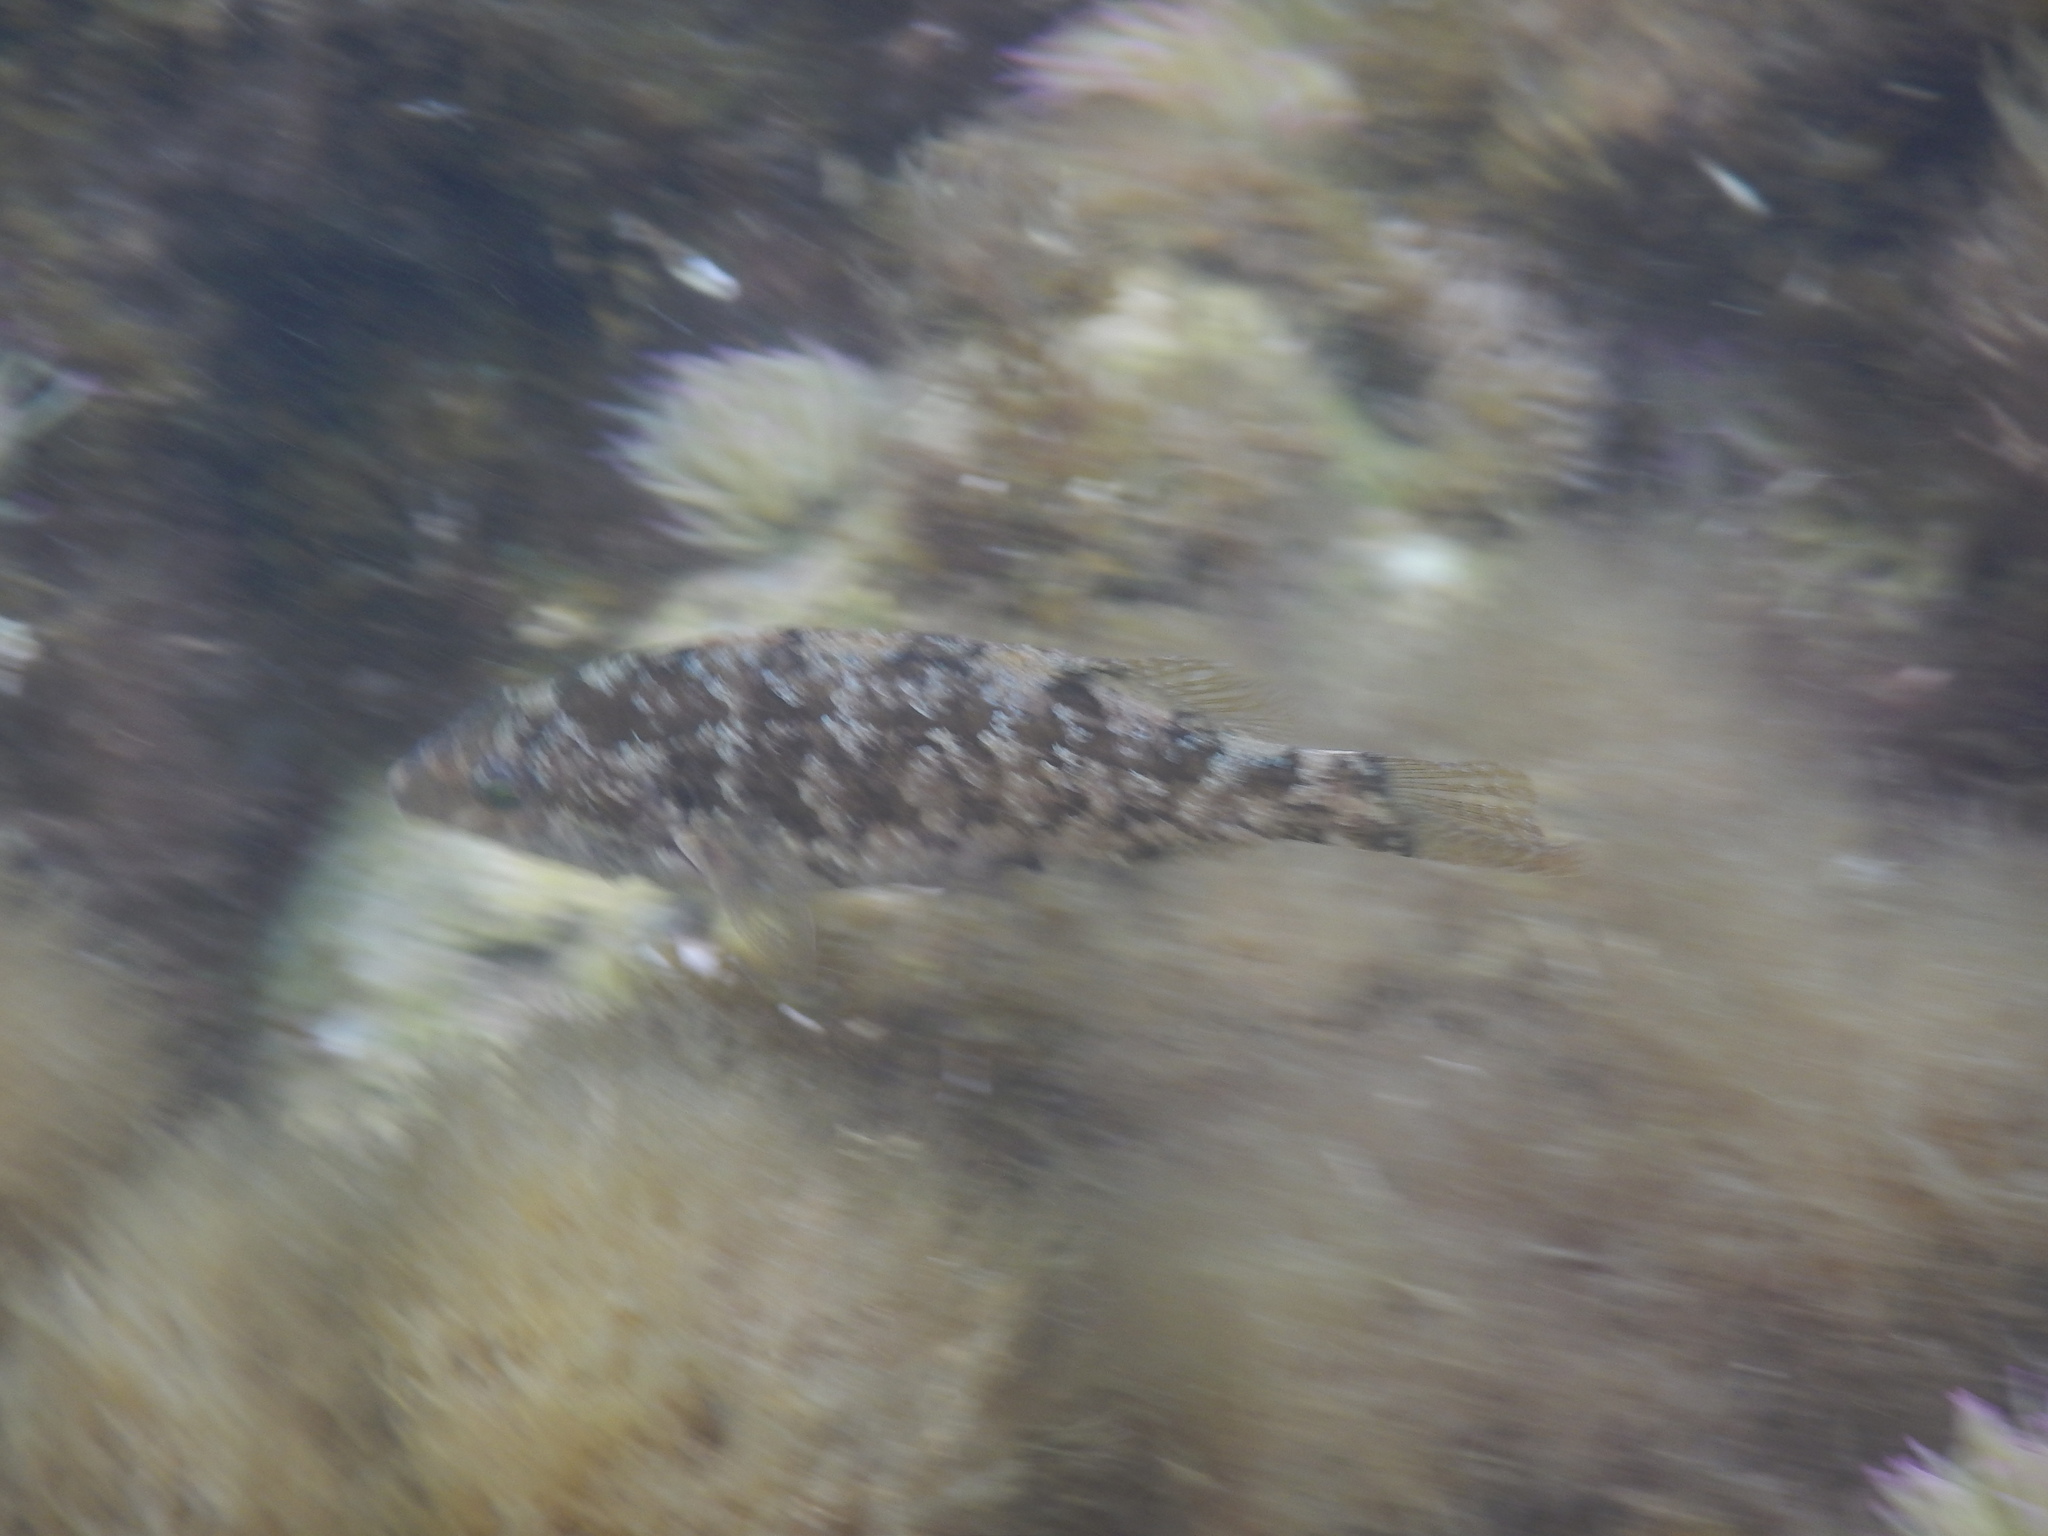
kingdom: Animalia
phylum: Chordata
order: Perciformes
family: Labridae
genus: Symphodus
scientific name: Symphodus cinereus
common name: Grey wrasse
